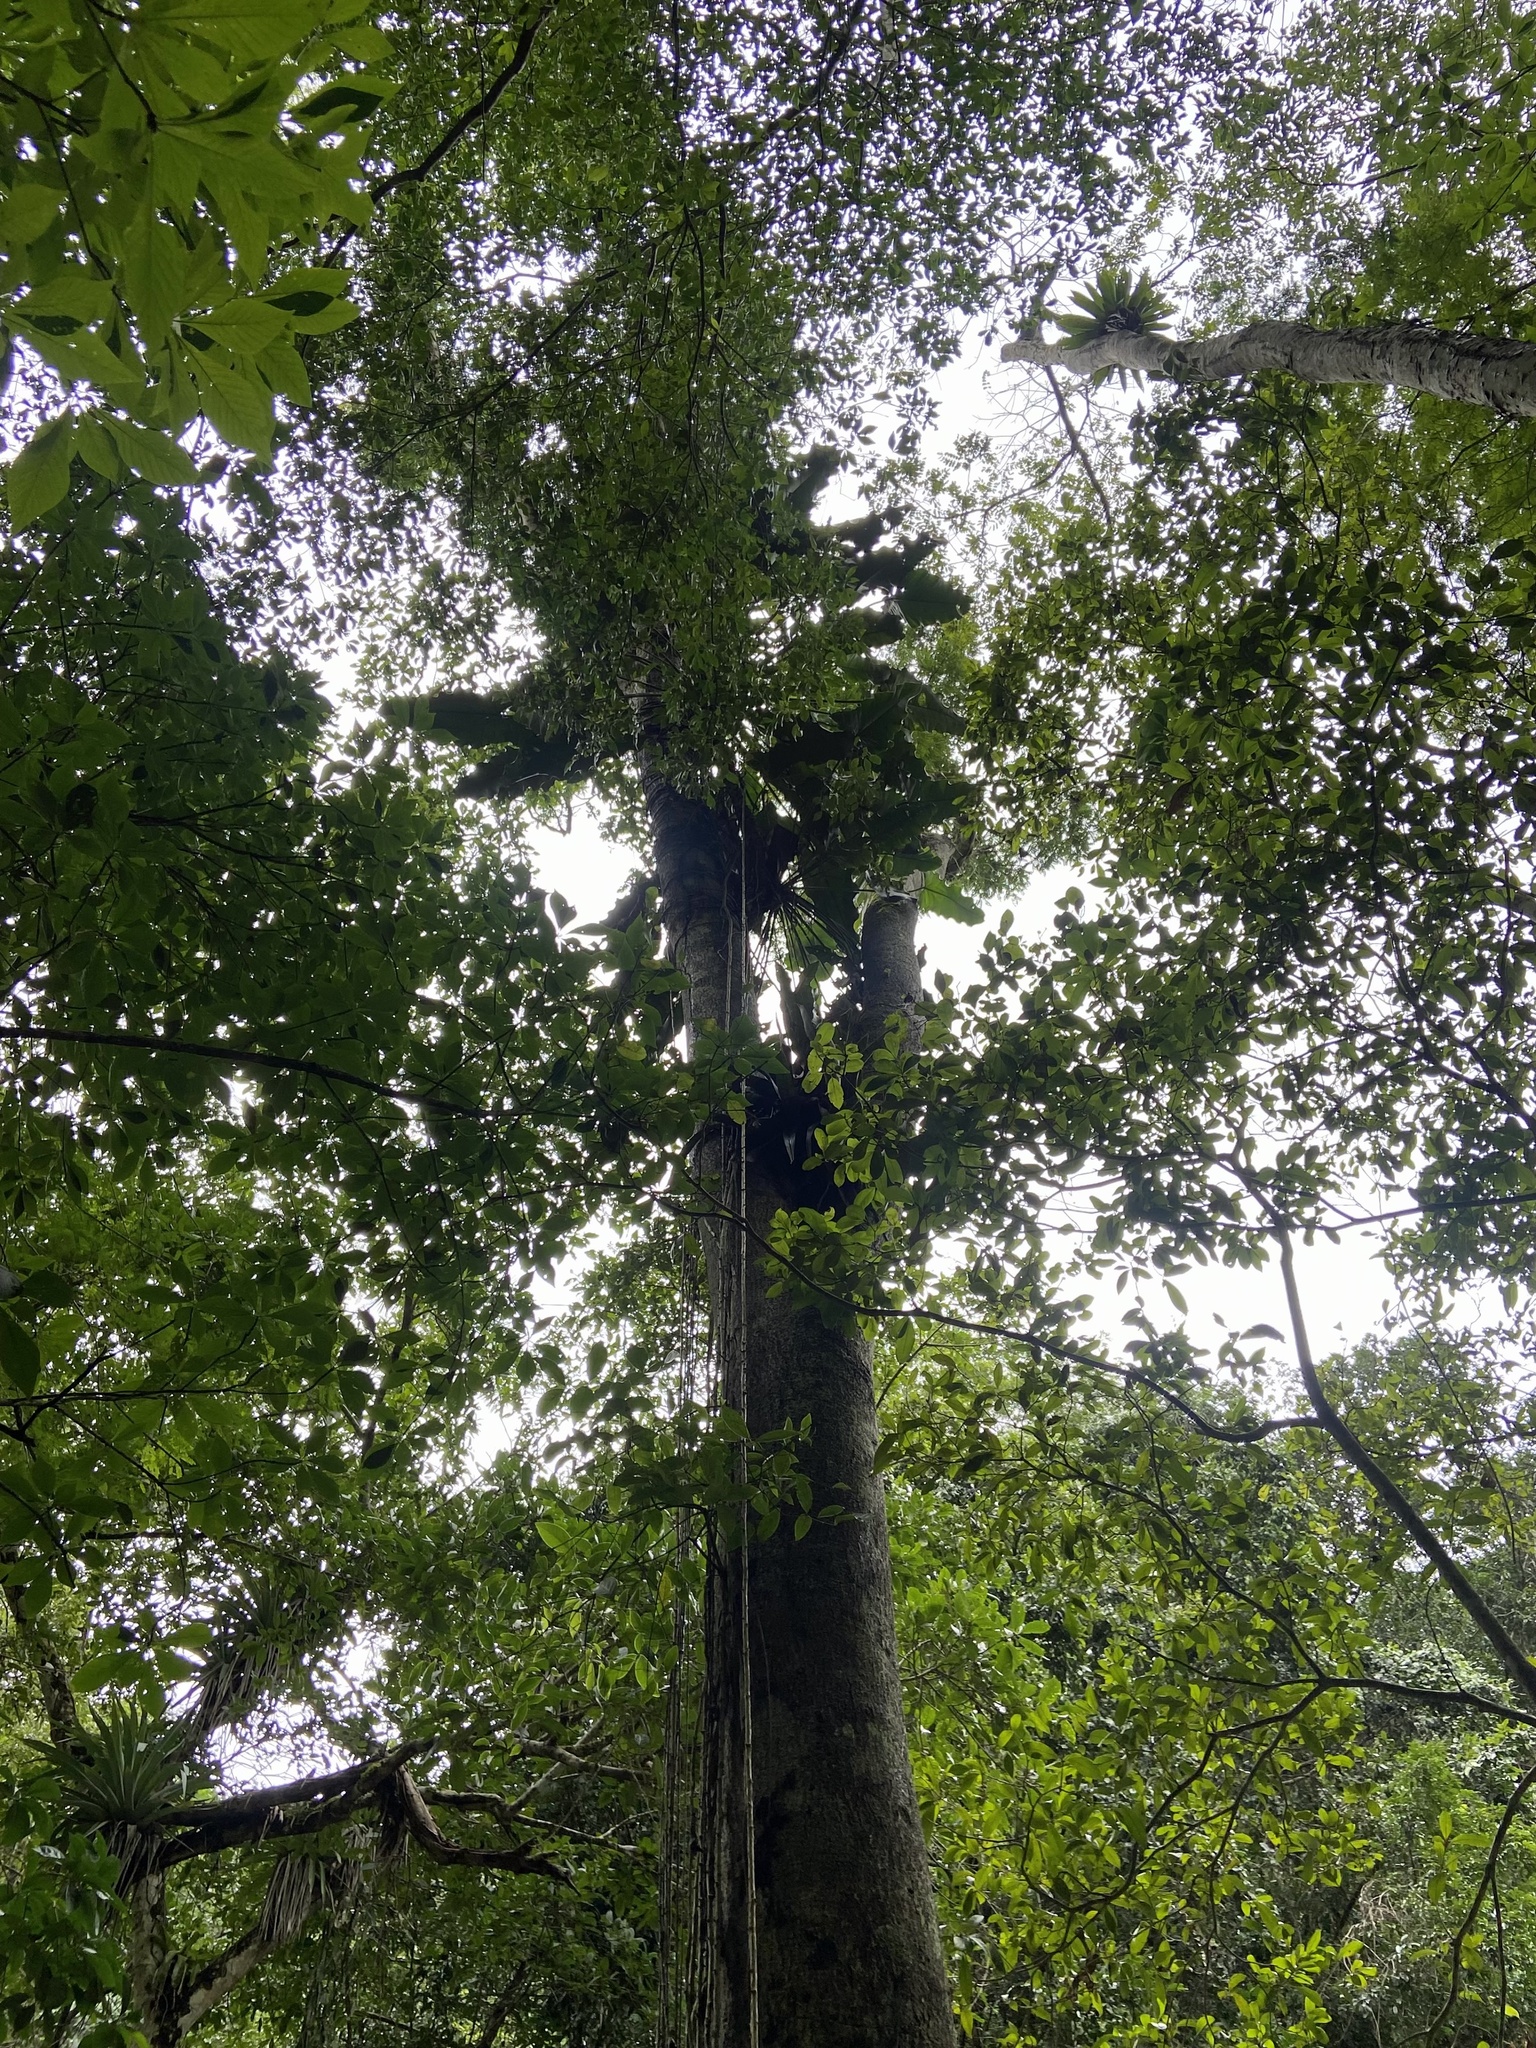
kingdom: Plantae
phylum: Tracheophyta
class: Liliopsida
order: Alismatales
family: Araceae
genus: Thaumatophyllum
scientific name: Thaumatophyllum stenolobum
